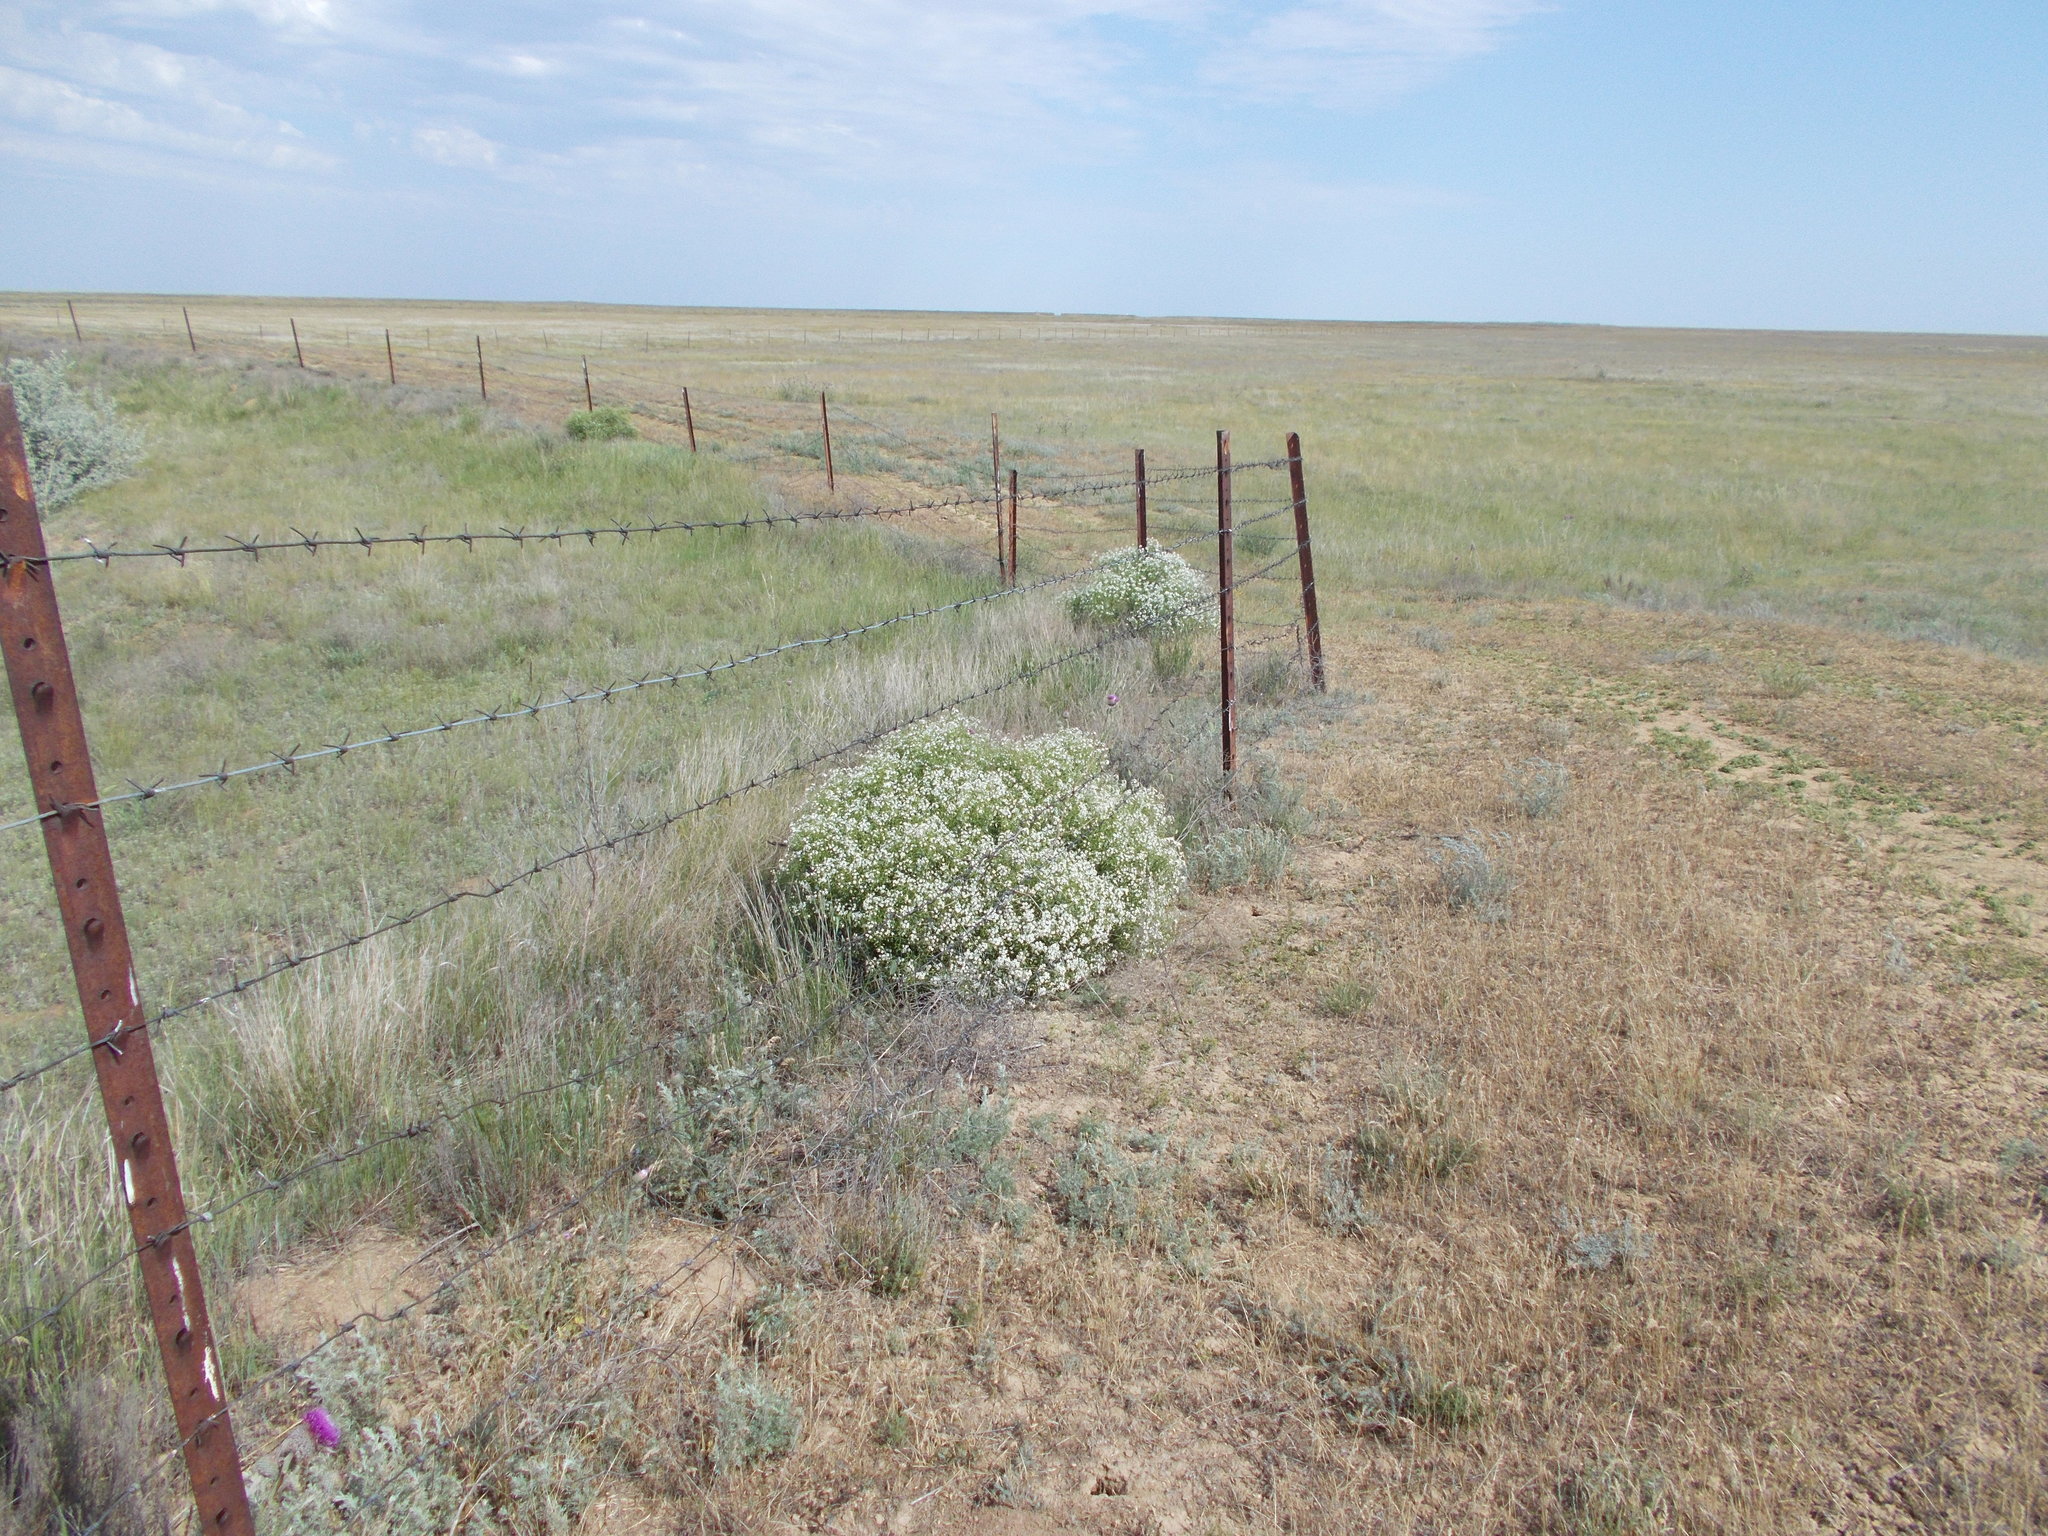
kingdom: Plantae
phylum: Tracheophyta
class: Magnoliopsida
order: Brassicales
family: Brassicaceae
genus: Crambe
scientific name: Crambe aspera
